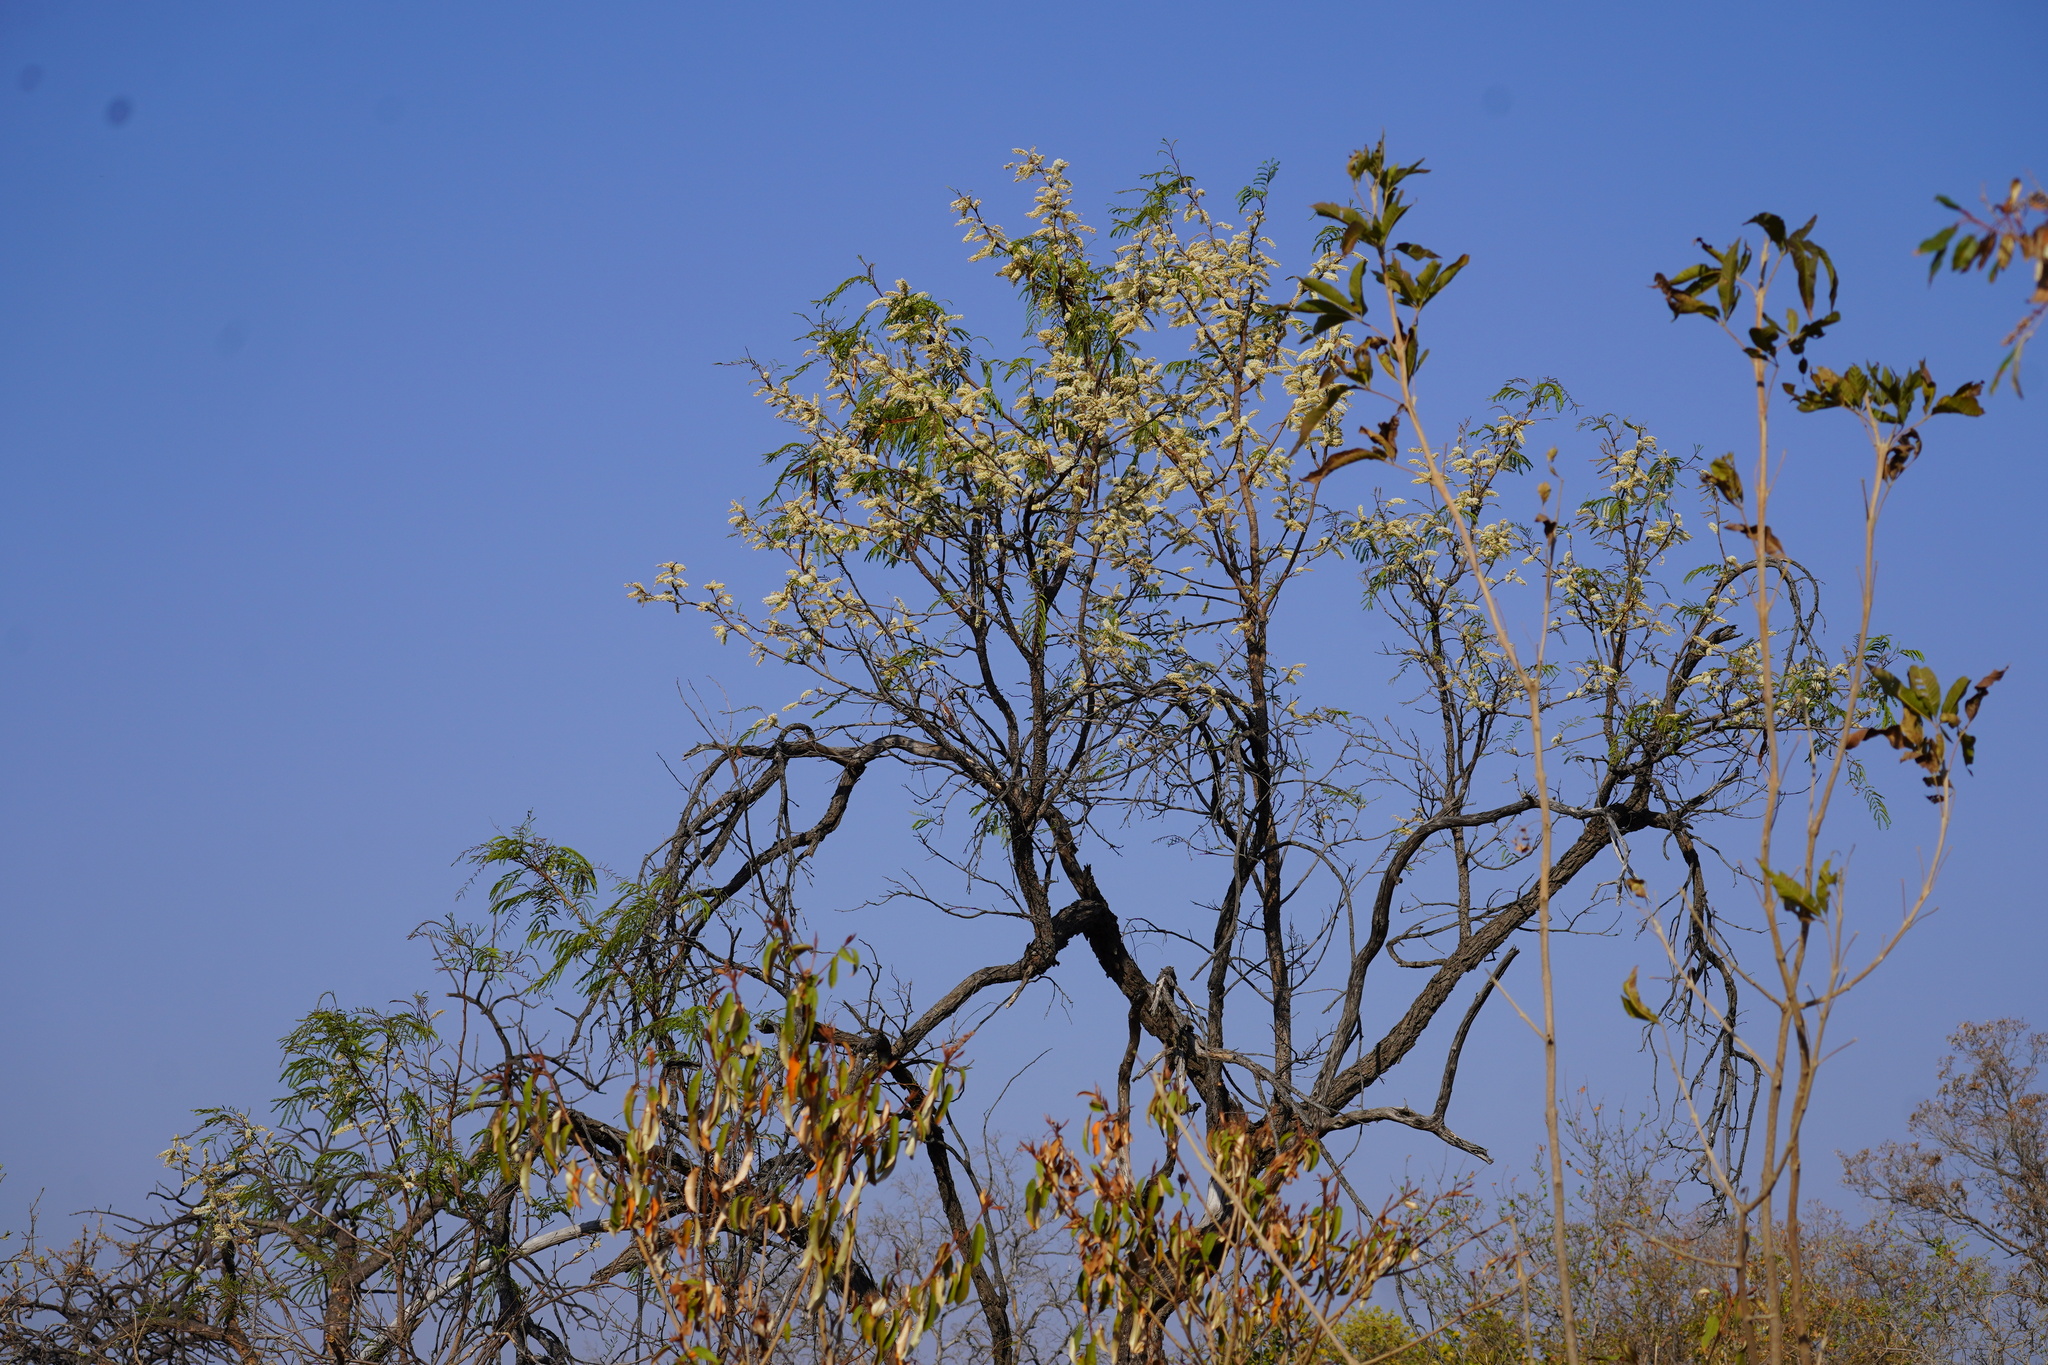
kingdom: Plantae
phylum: Tracheophyta
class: Magnoliopsida
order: Fabales
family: Fabaceae
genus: Senegalia
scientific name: Senegalia caffra
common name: Cat thorn
